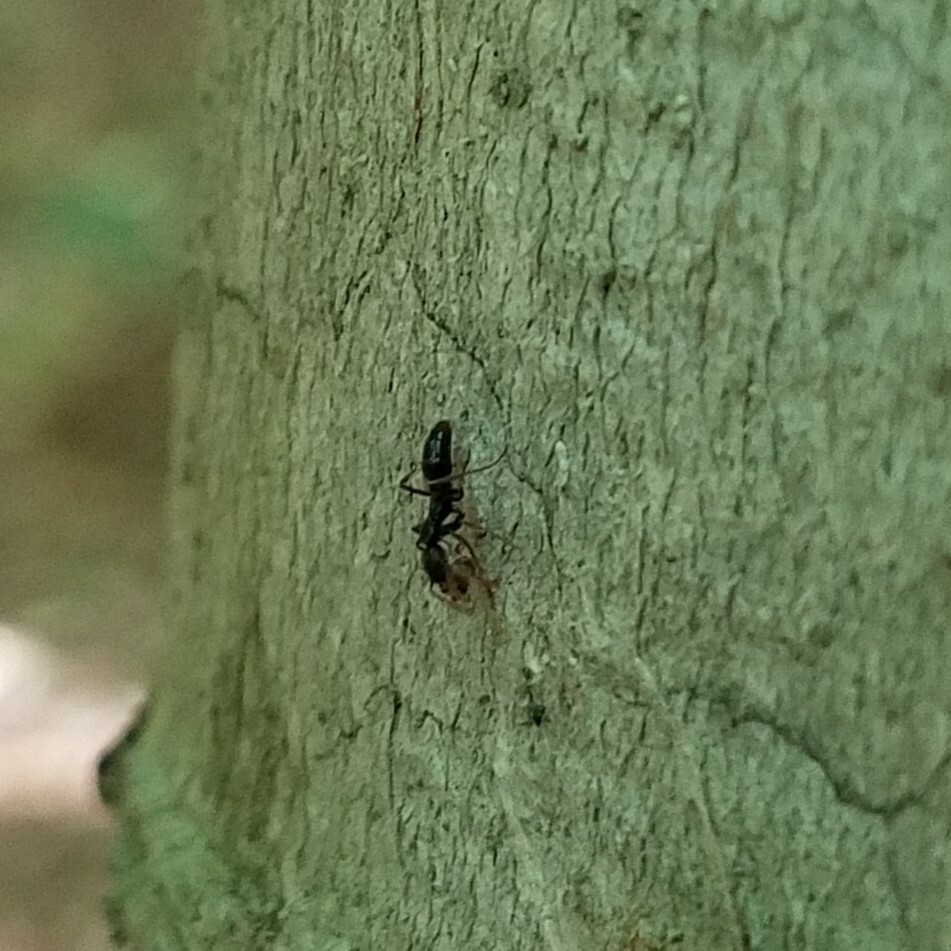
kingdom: Animalia
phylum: Arthropoda
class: Insecta
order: Hymenoptera
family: Formicidae
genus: Pachycondyla
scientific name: Pachycondyla chinensis
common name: Asian needle ant
